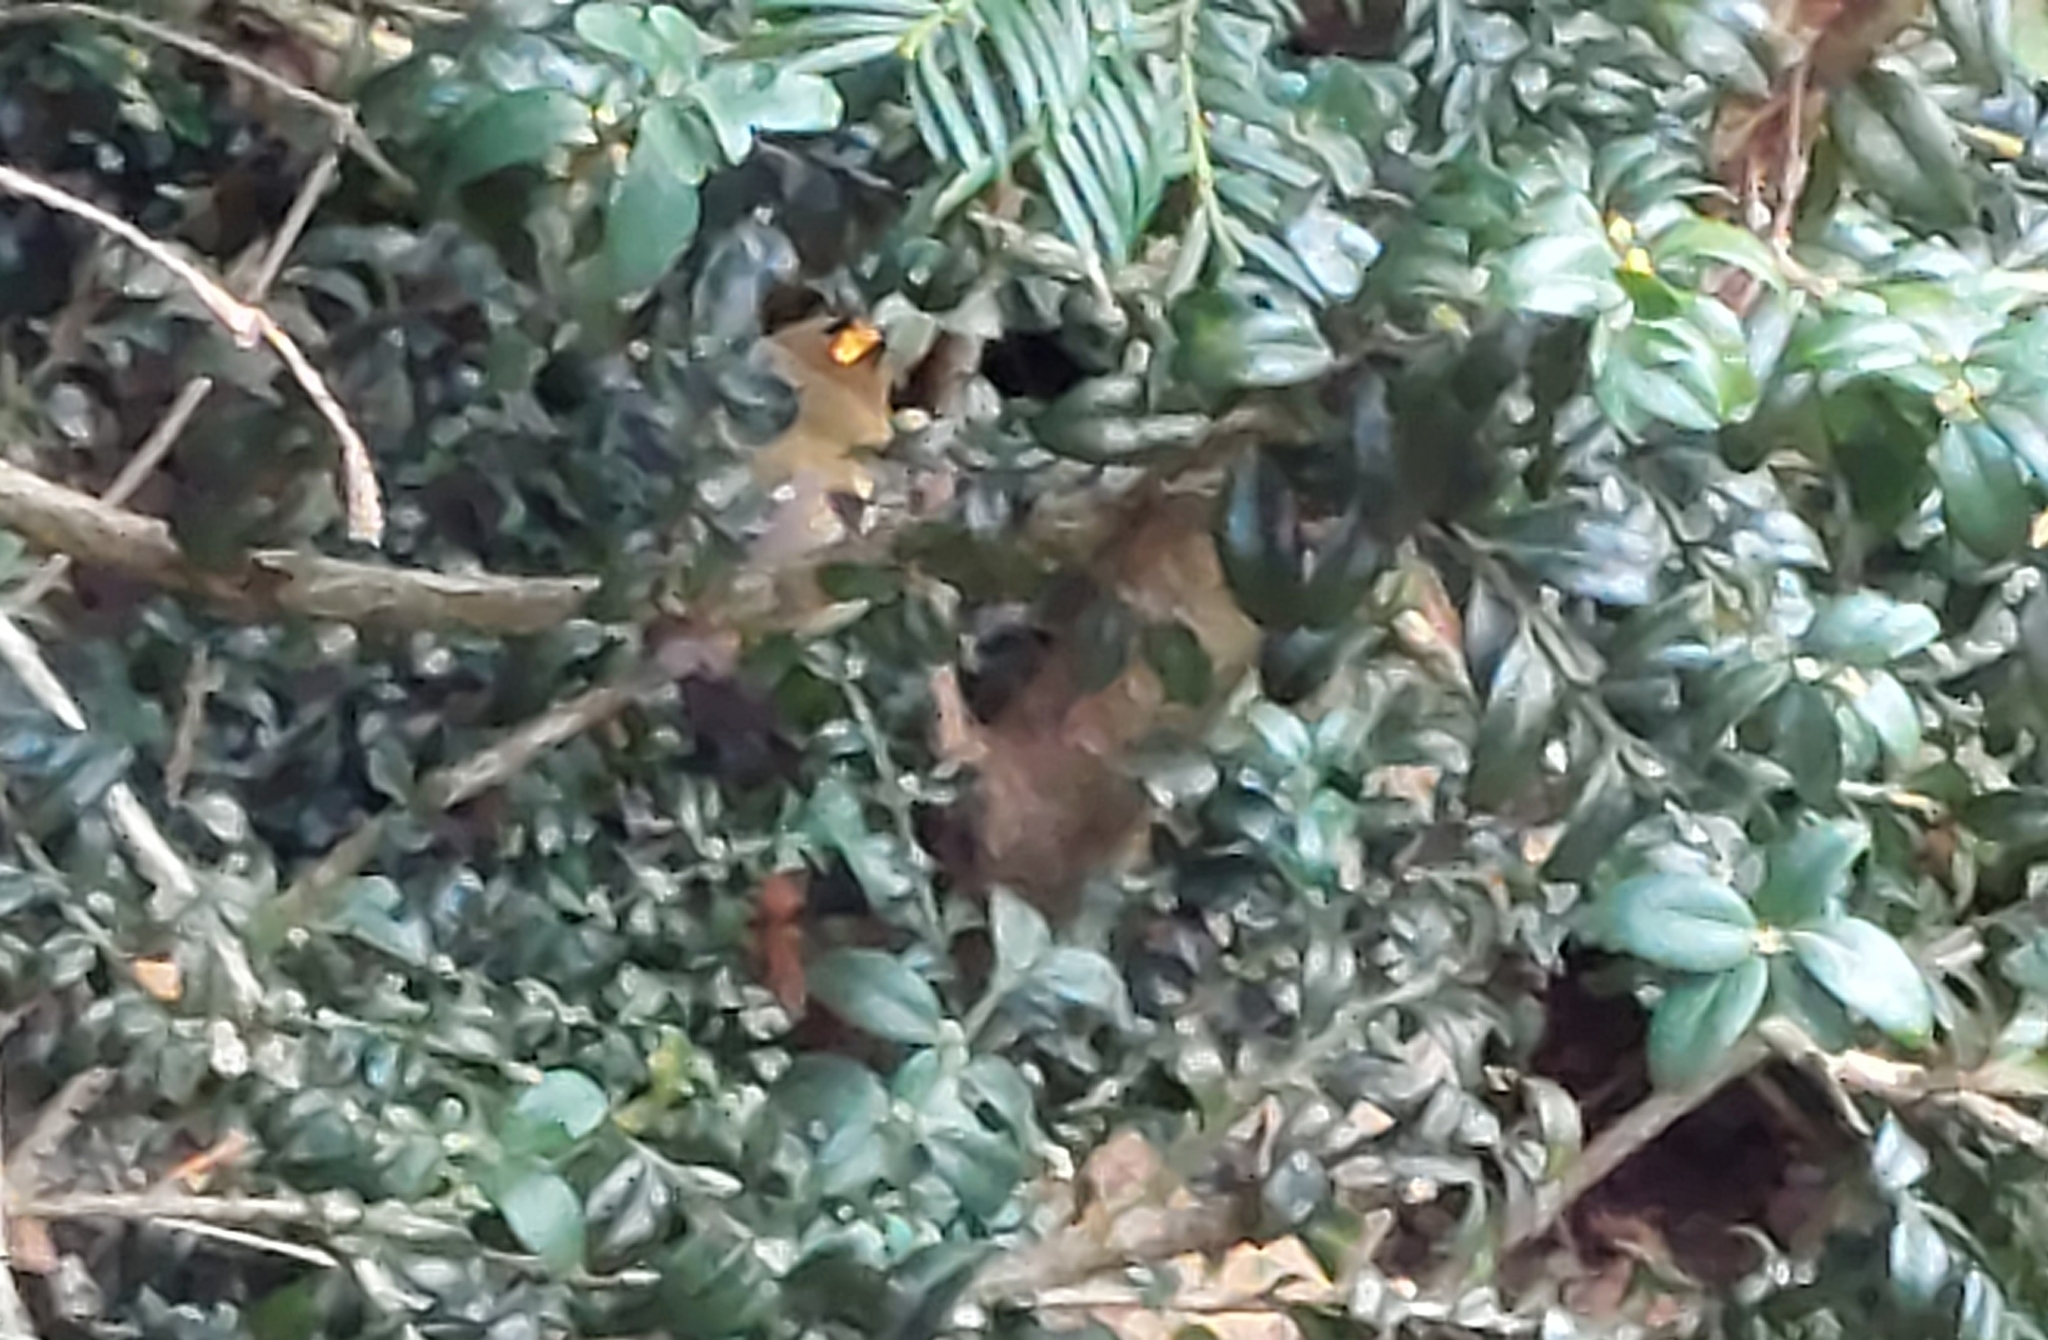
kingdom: Animalia
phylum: Chordata
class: Aves
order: Passeriformes
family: Regulidae
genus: Regulus
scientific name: Regulus regulus
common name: Goldcrest
